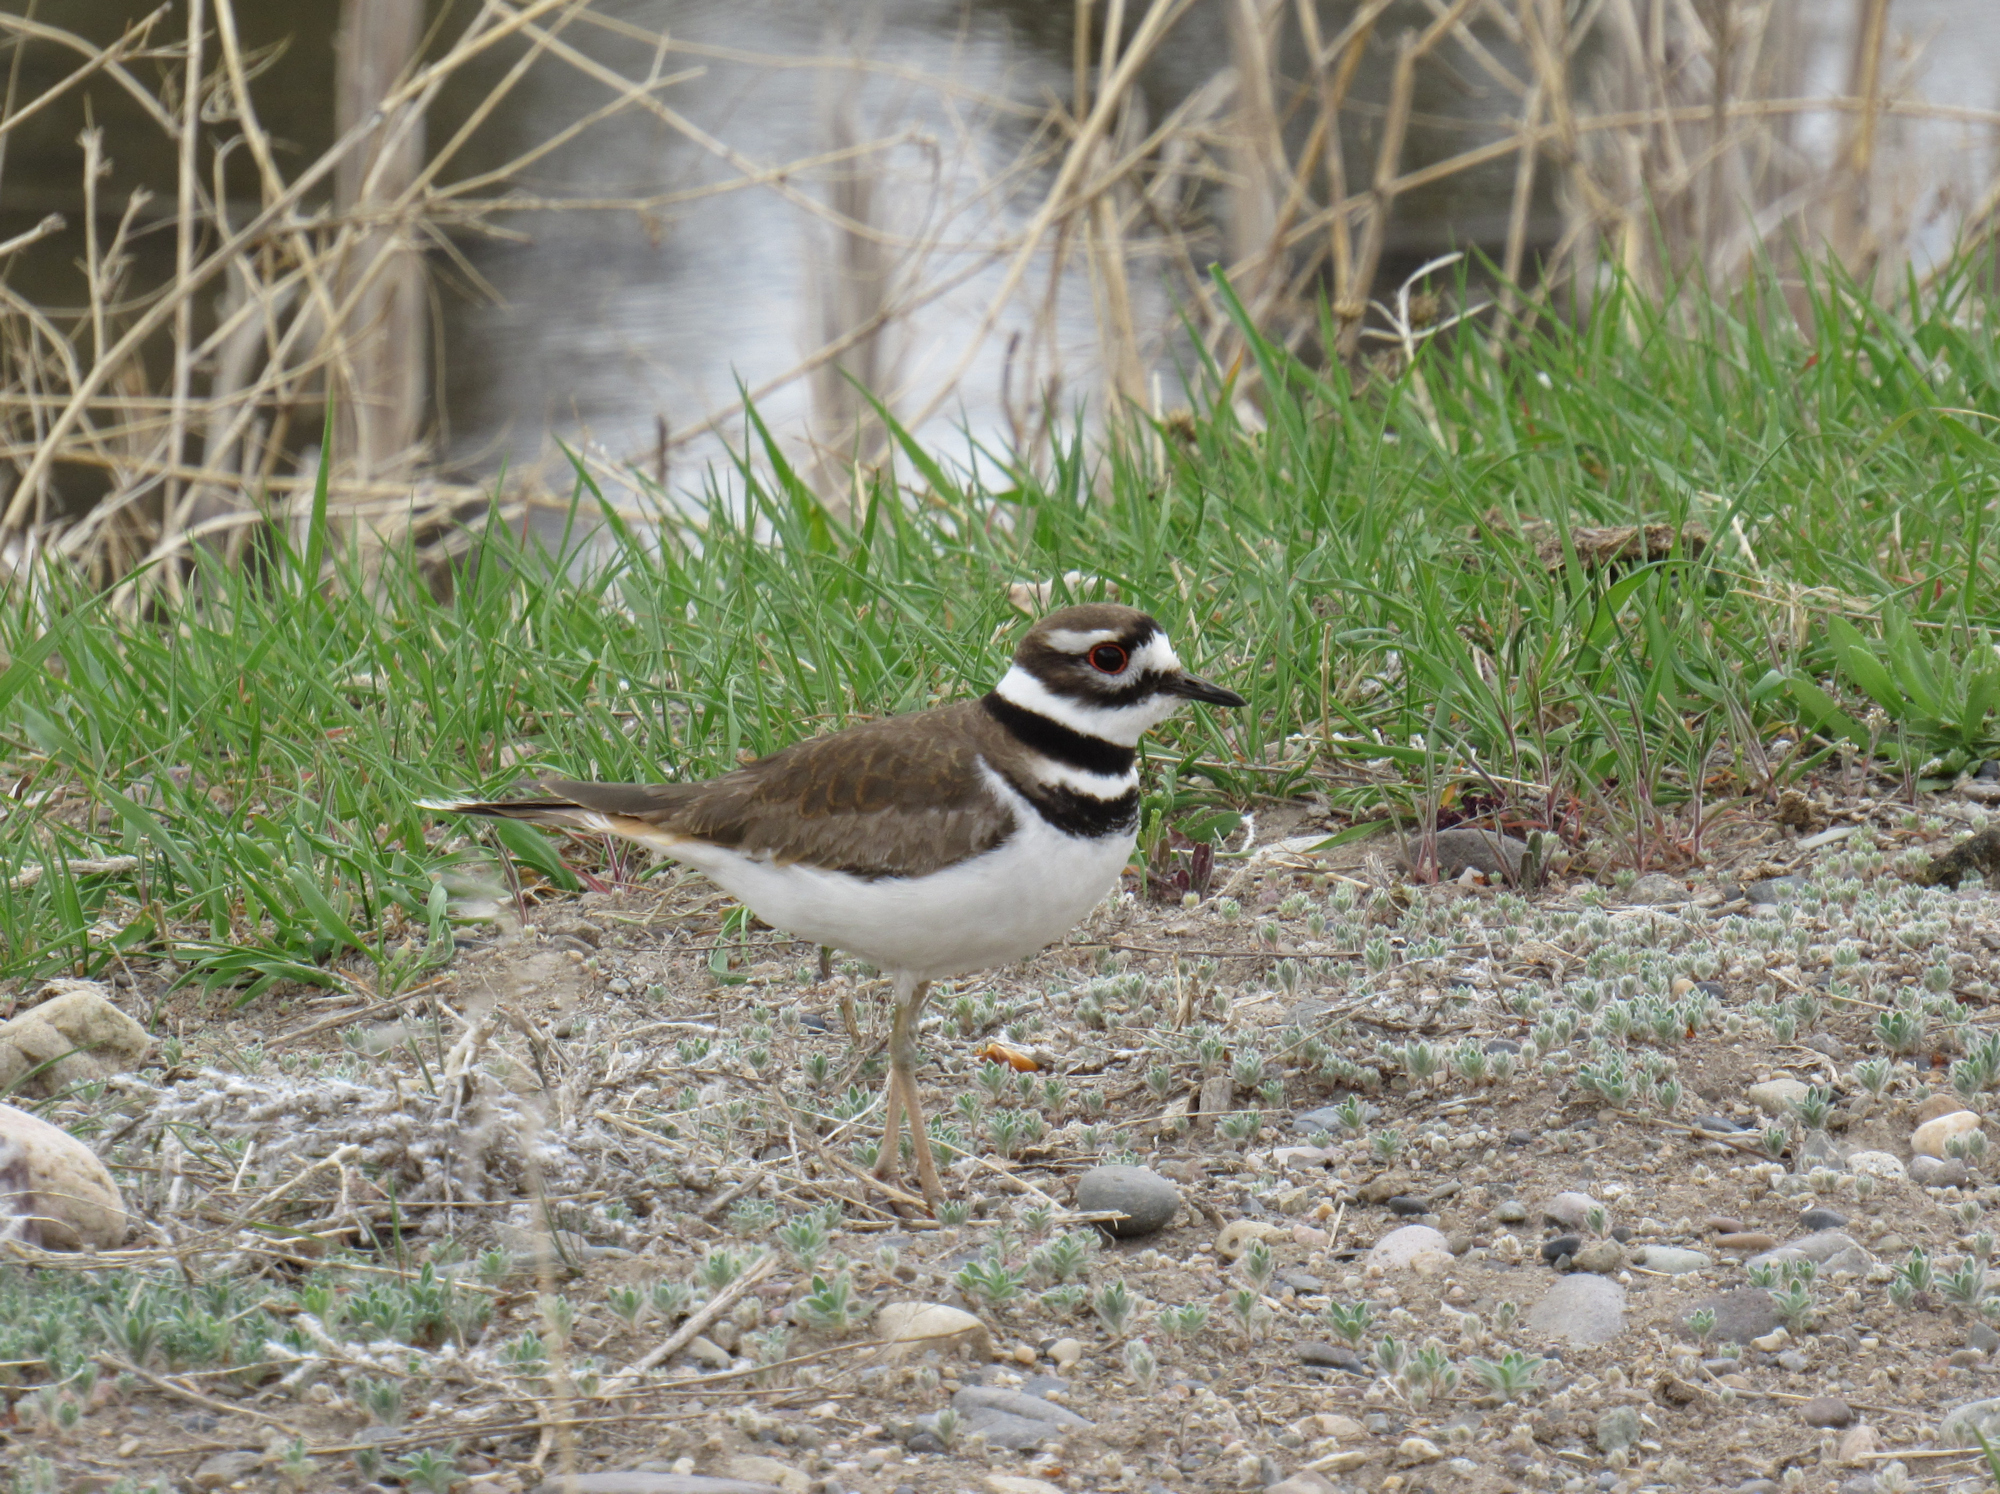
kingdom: Animalia
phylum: Chordata
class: Aves
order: Charadriiformes
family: Charadriidae
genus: Charadrius
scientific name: Charadrius vociferus
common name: Killdeer
